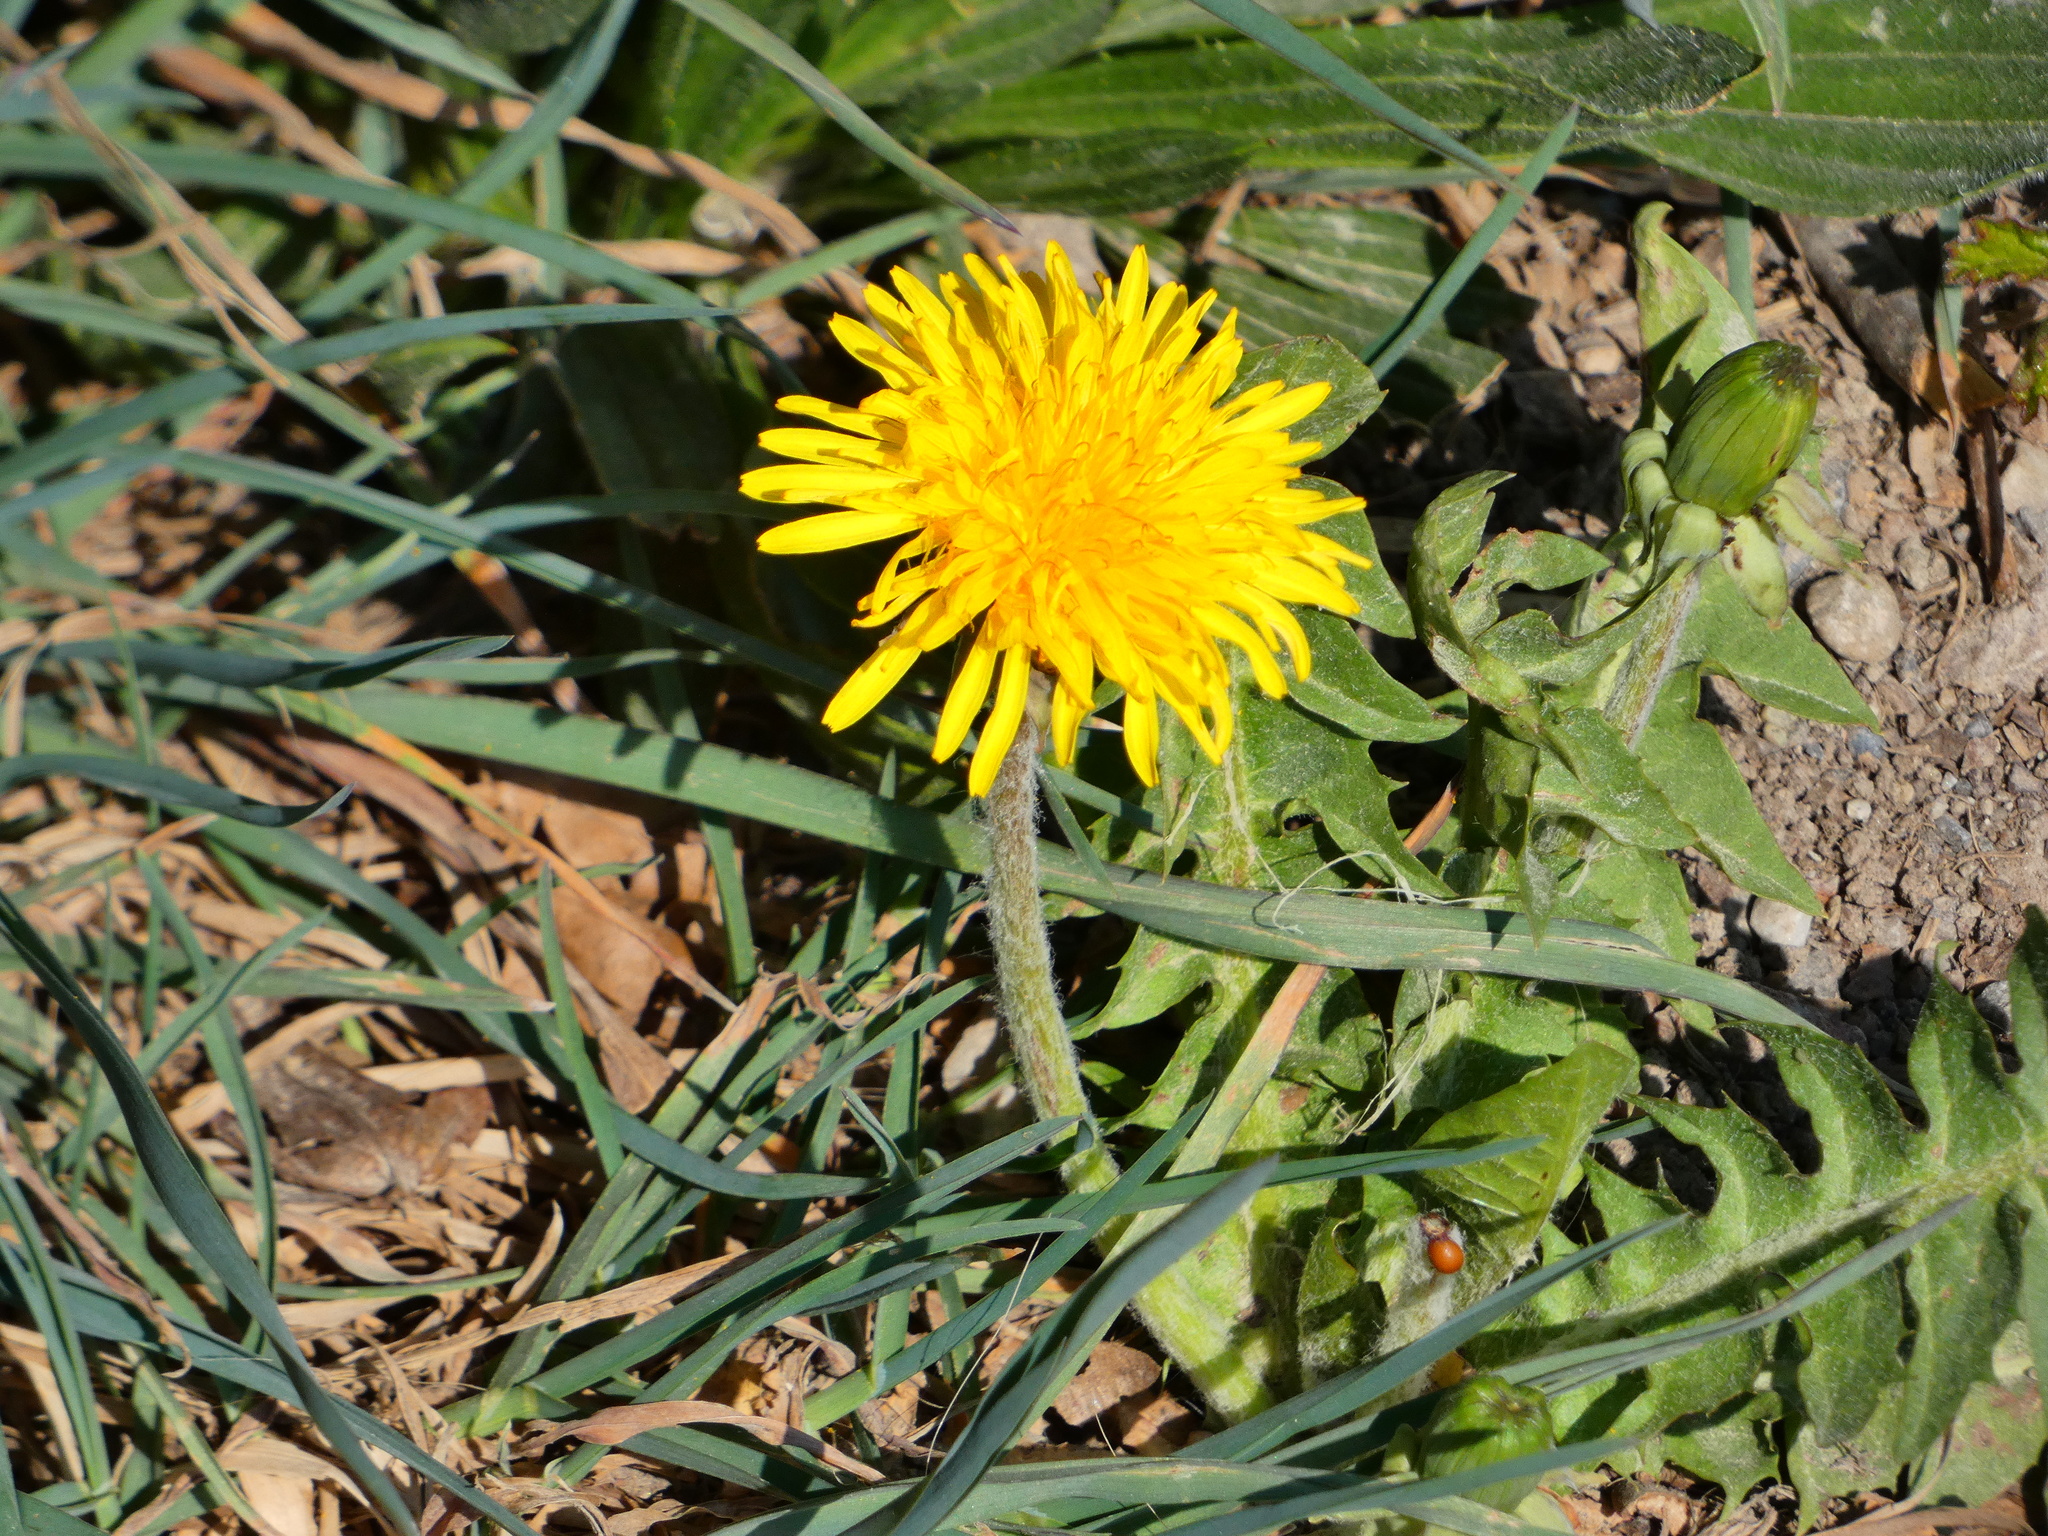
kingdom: Plantae
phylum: Tracheophyta
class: Magnoliopsida
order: Asterales
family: Asteraceae
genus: Taraxacum
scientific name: Taraxacum
